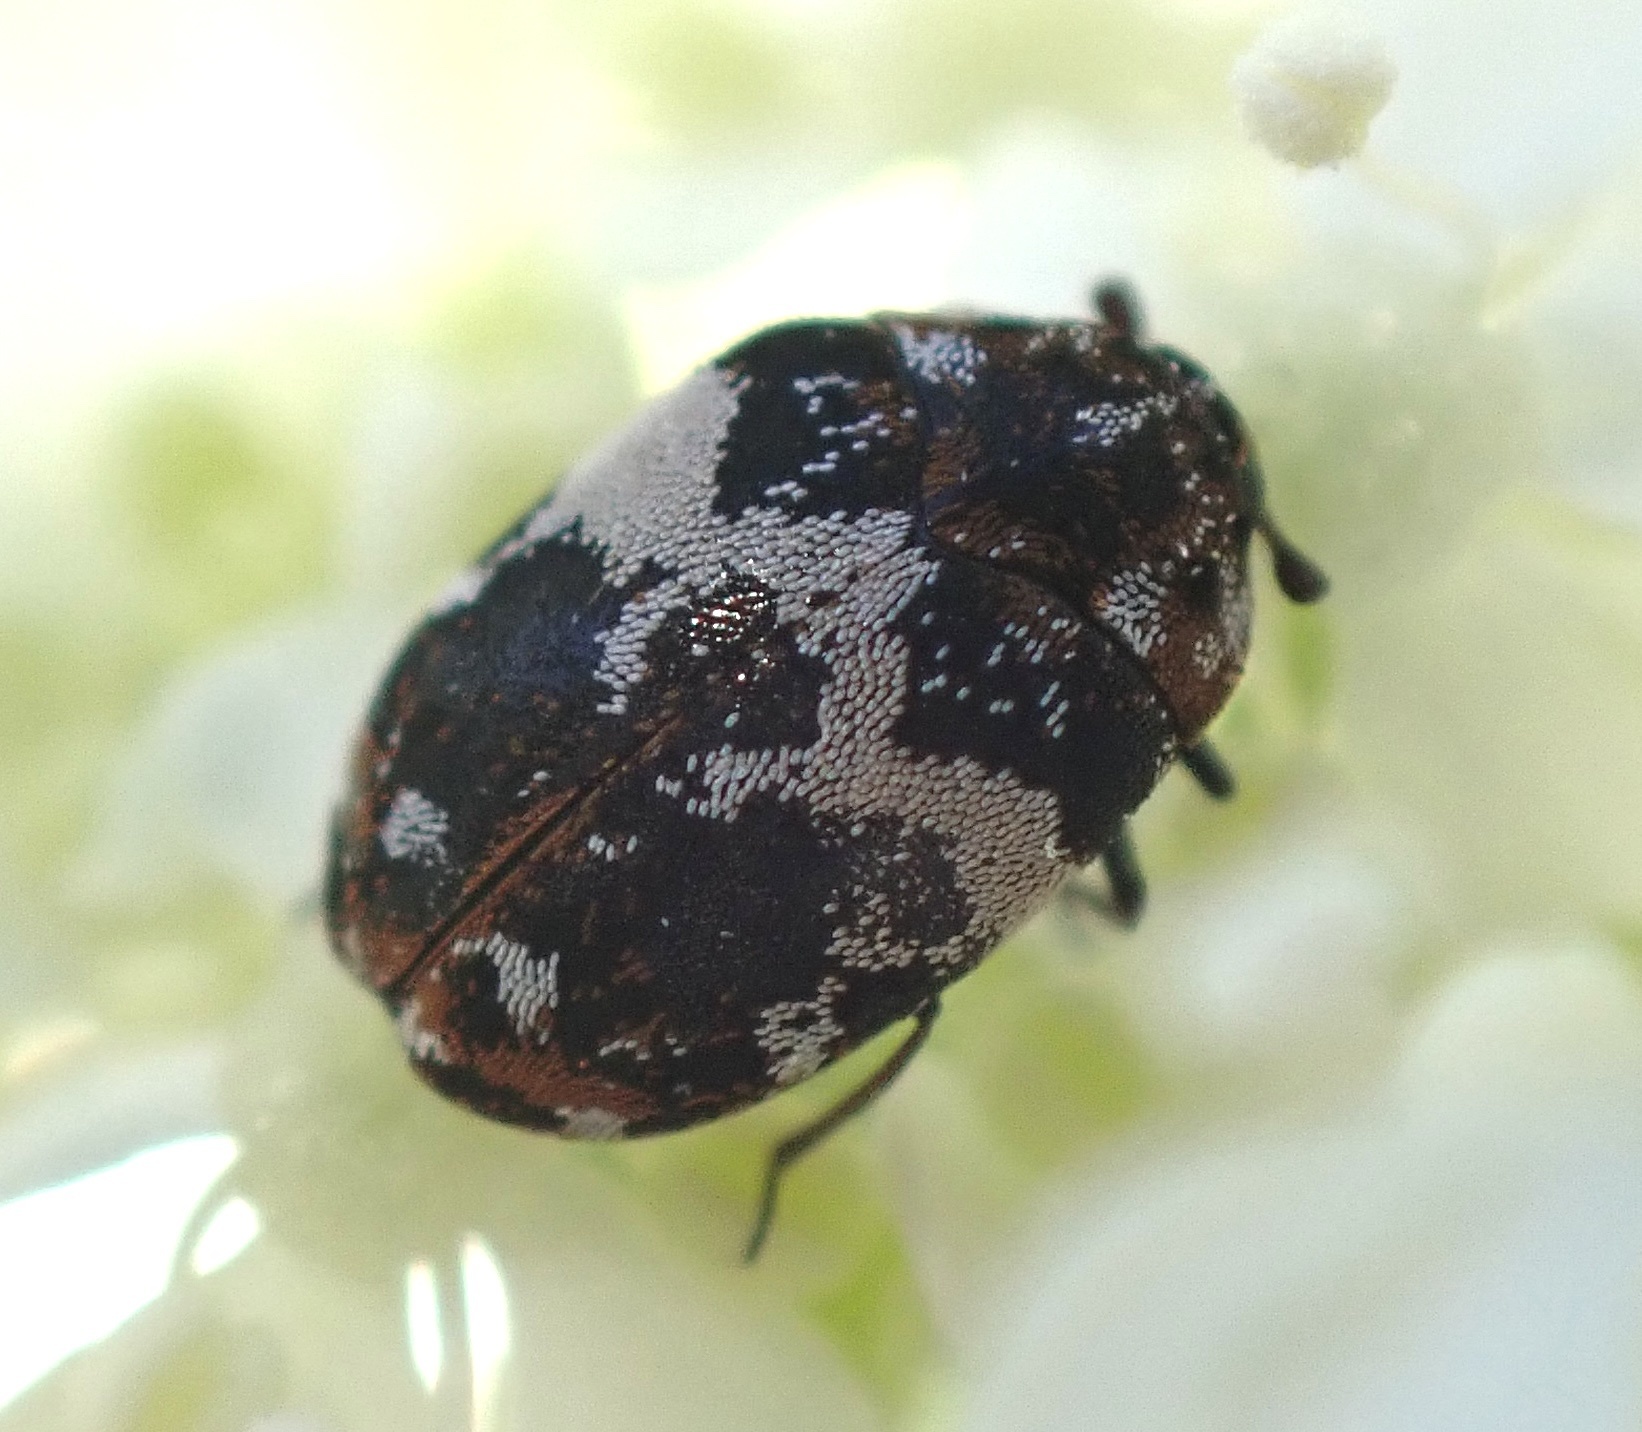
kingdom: Animalia
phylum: Arthropoda
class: Insecta
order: Coleoptera
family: Dermestidae
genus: Anthrenus
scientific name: Anthrenus pimpinellae
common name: Dermestid beetle
